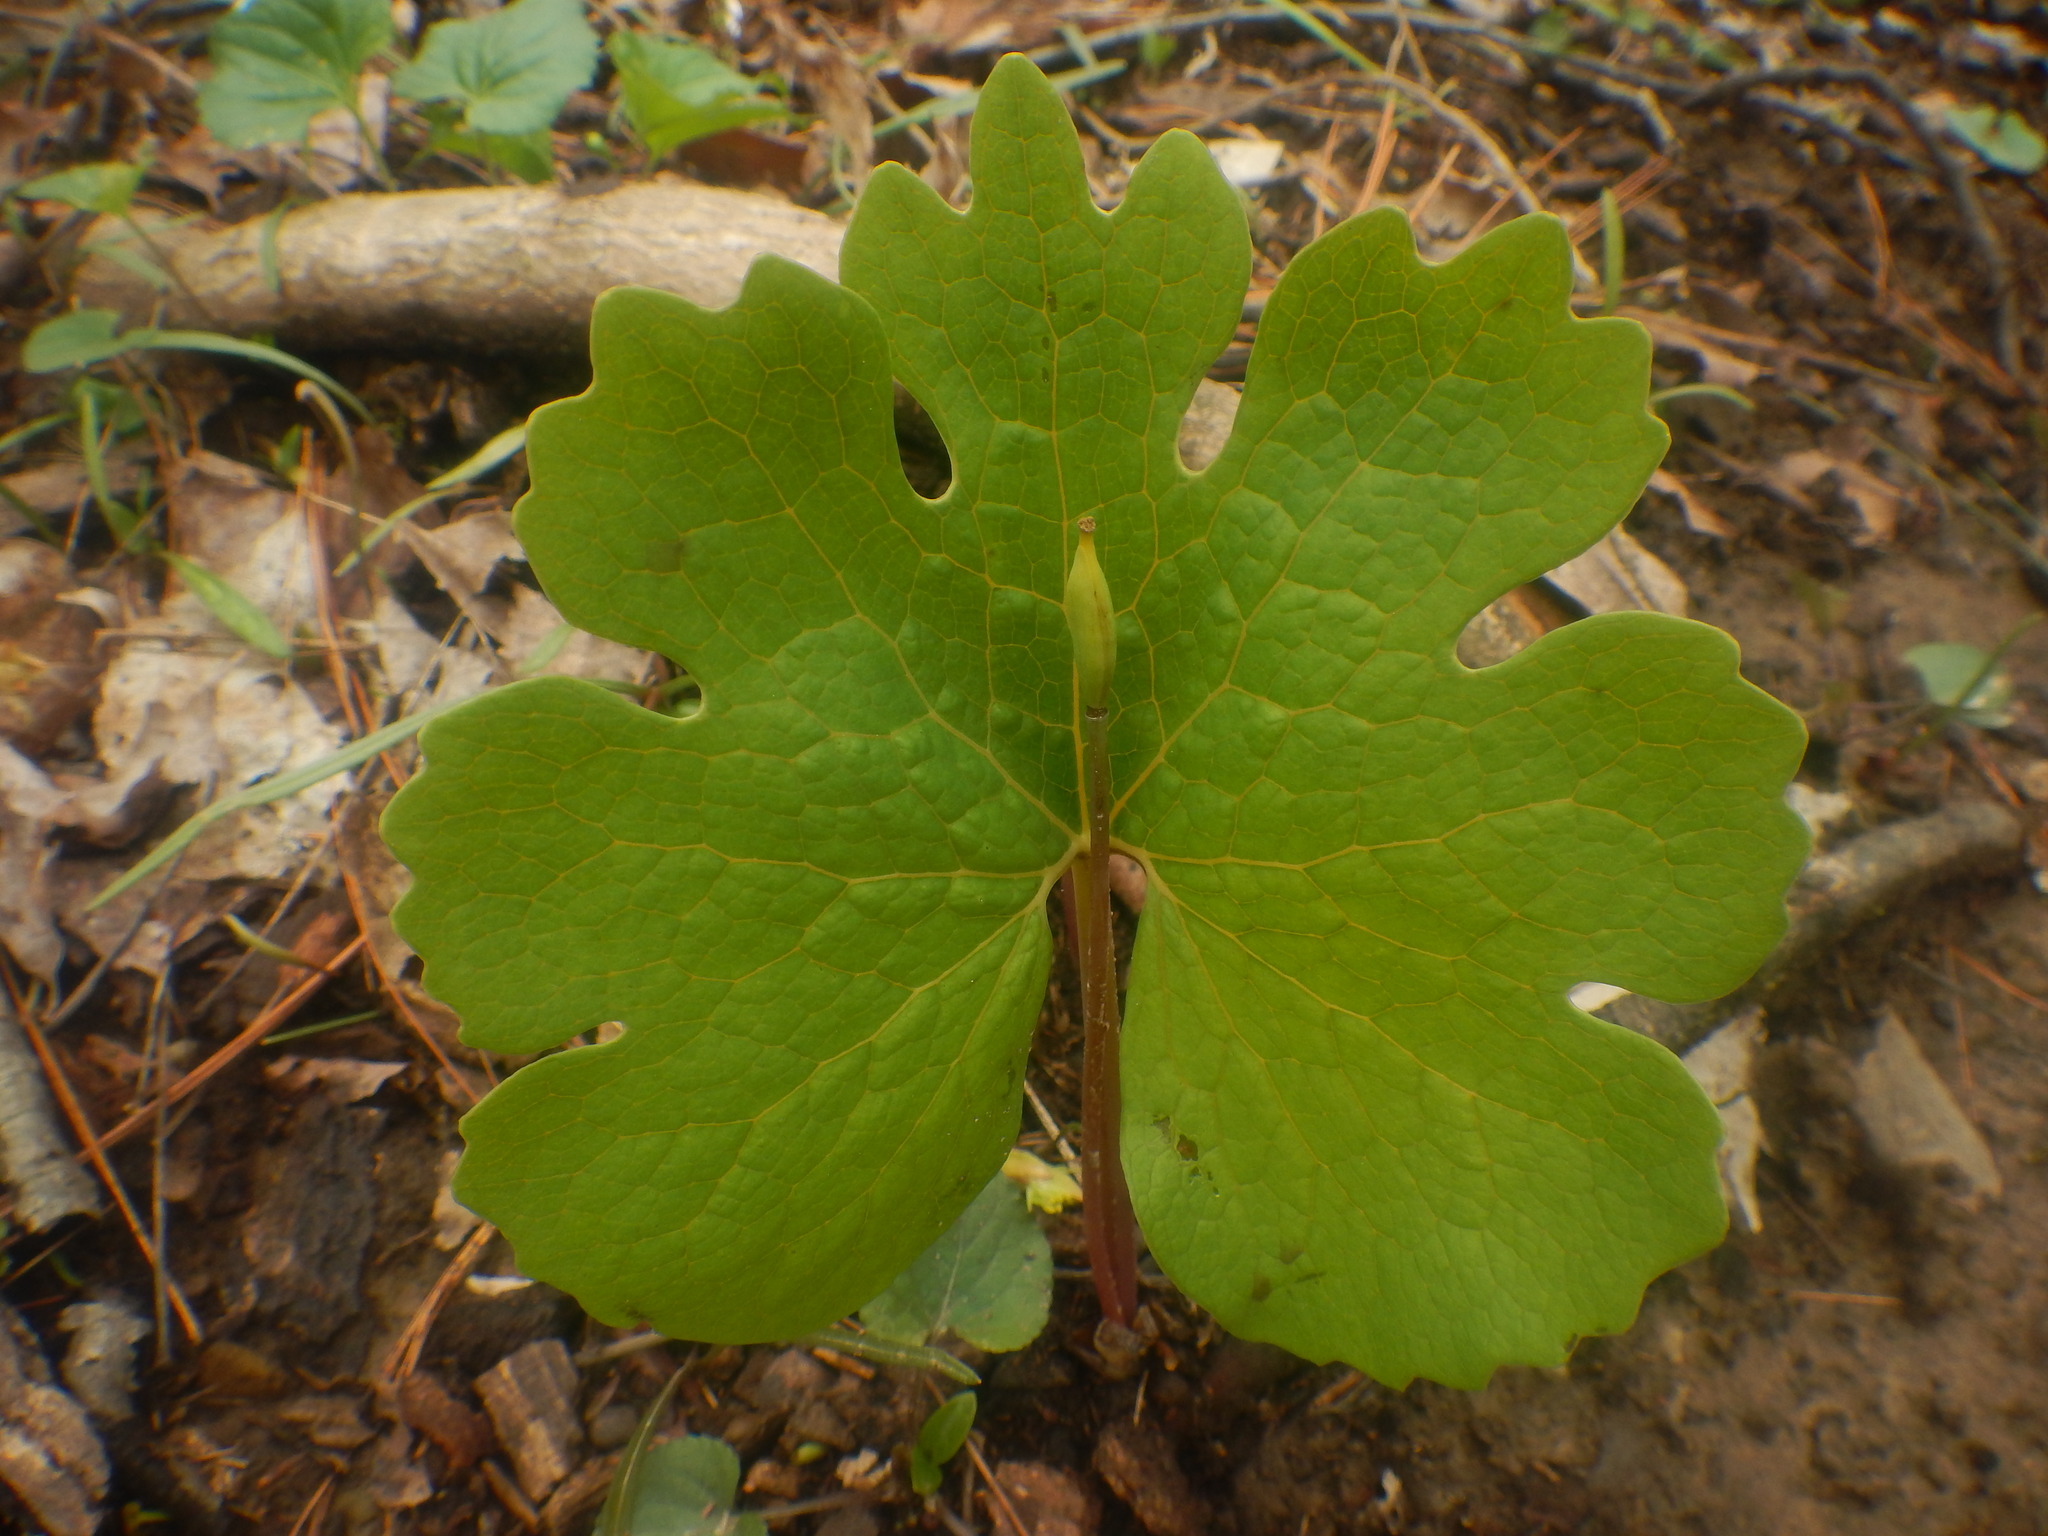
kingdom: Plantae
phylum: Tracheophyta
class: Magnoliopsida
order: Ranunculales
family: Papaveraceae
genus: Sanguinaria
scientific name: Sanguinaria canadensis
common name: Bloodroot
